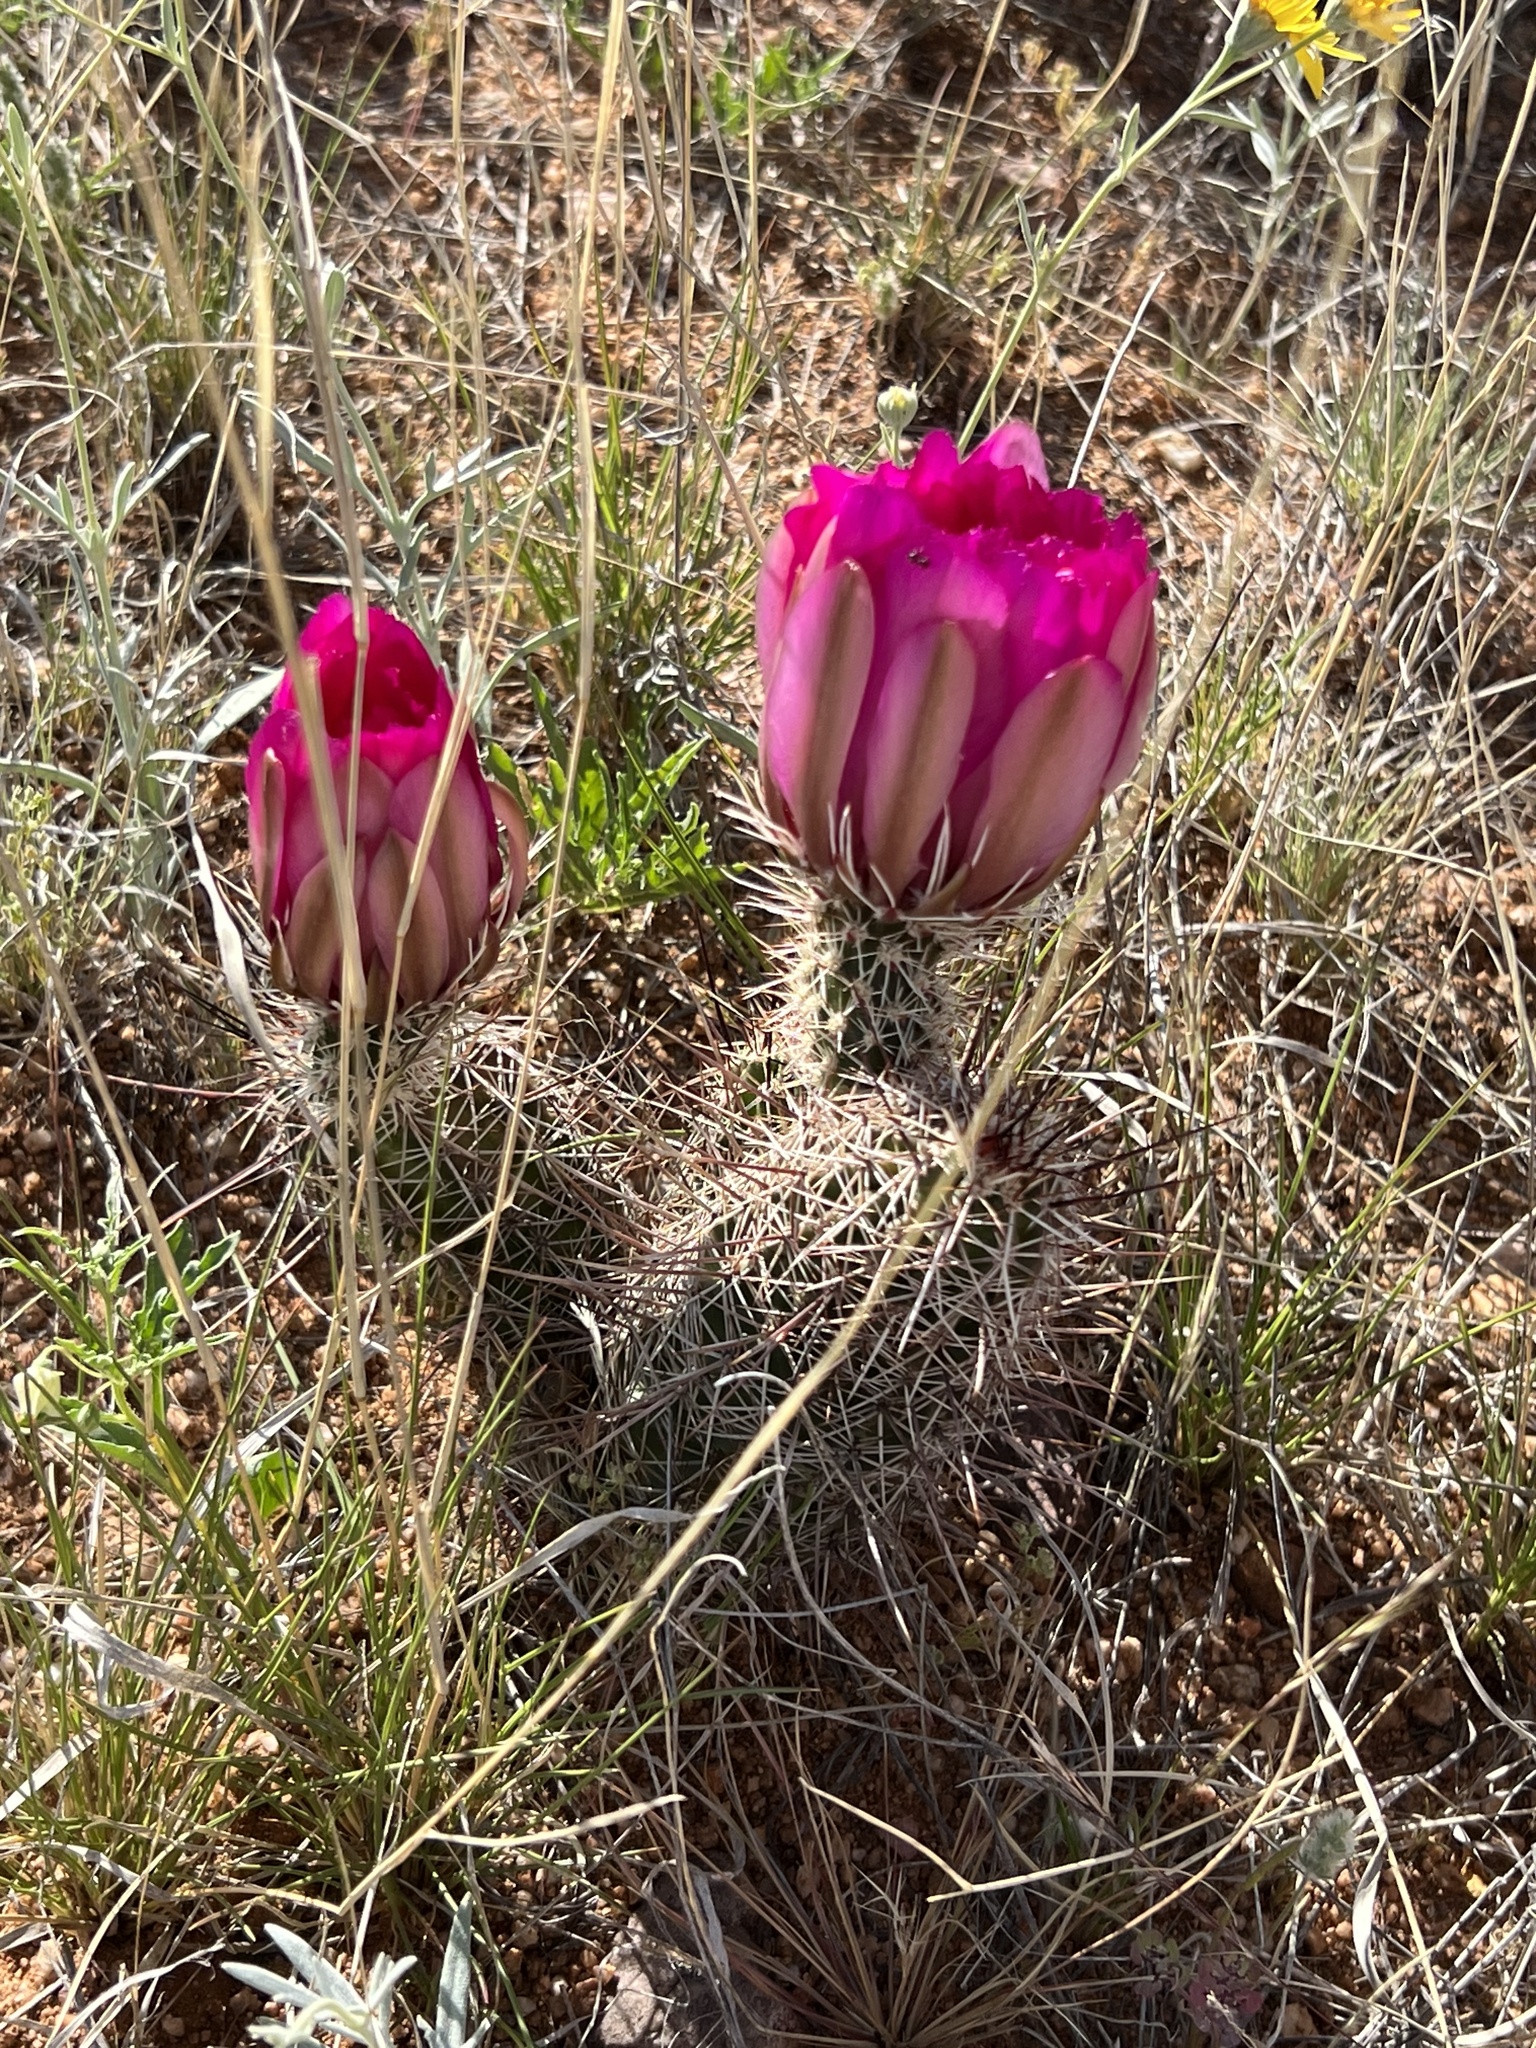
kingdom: Plantae
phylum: Tracheophyta
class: Magnoliopsida
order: Caryophyllales
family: Cactaceae
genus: Echinocereus
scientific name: Echinocereus fasciculatus
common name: Bundle hedgehog
